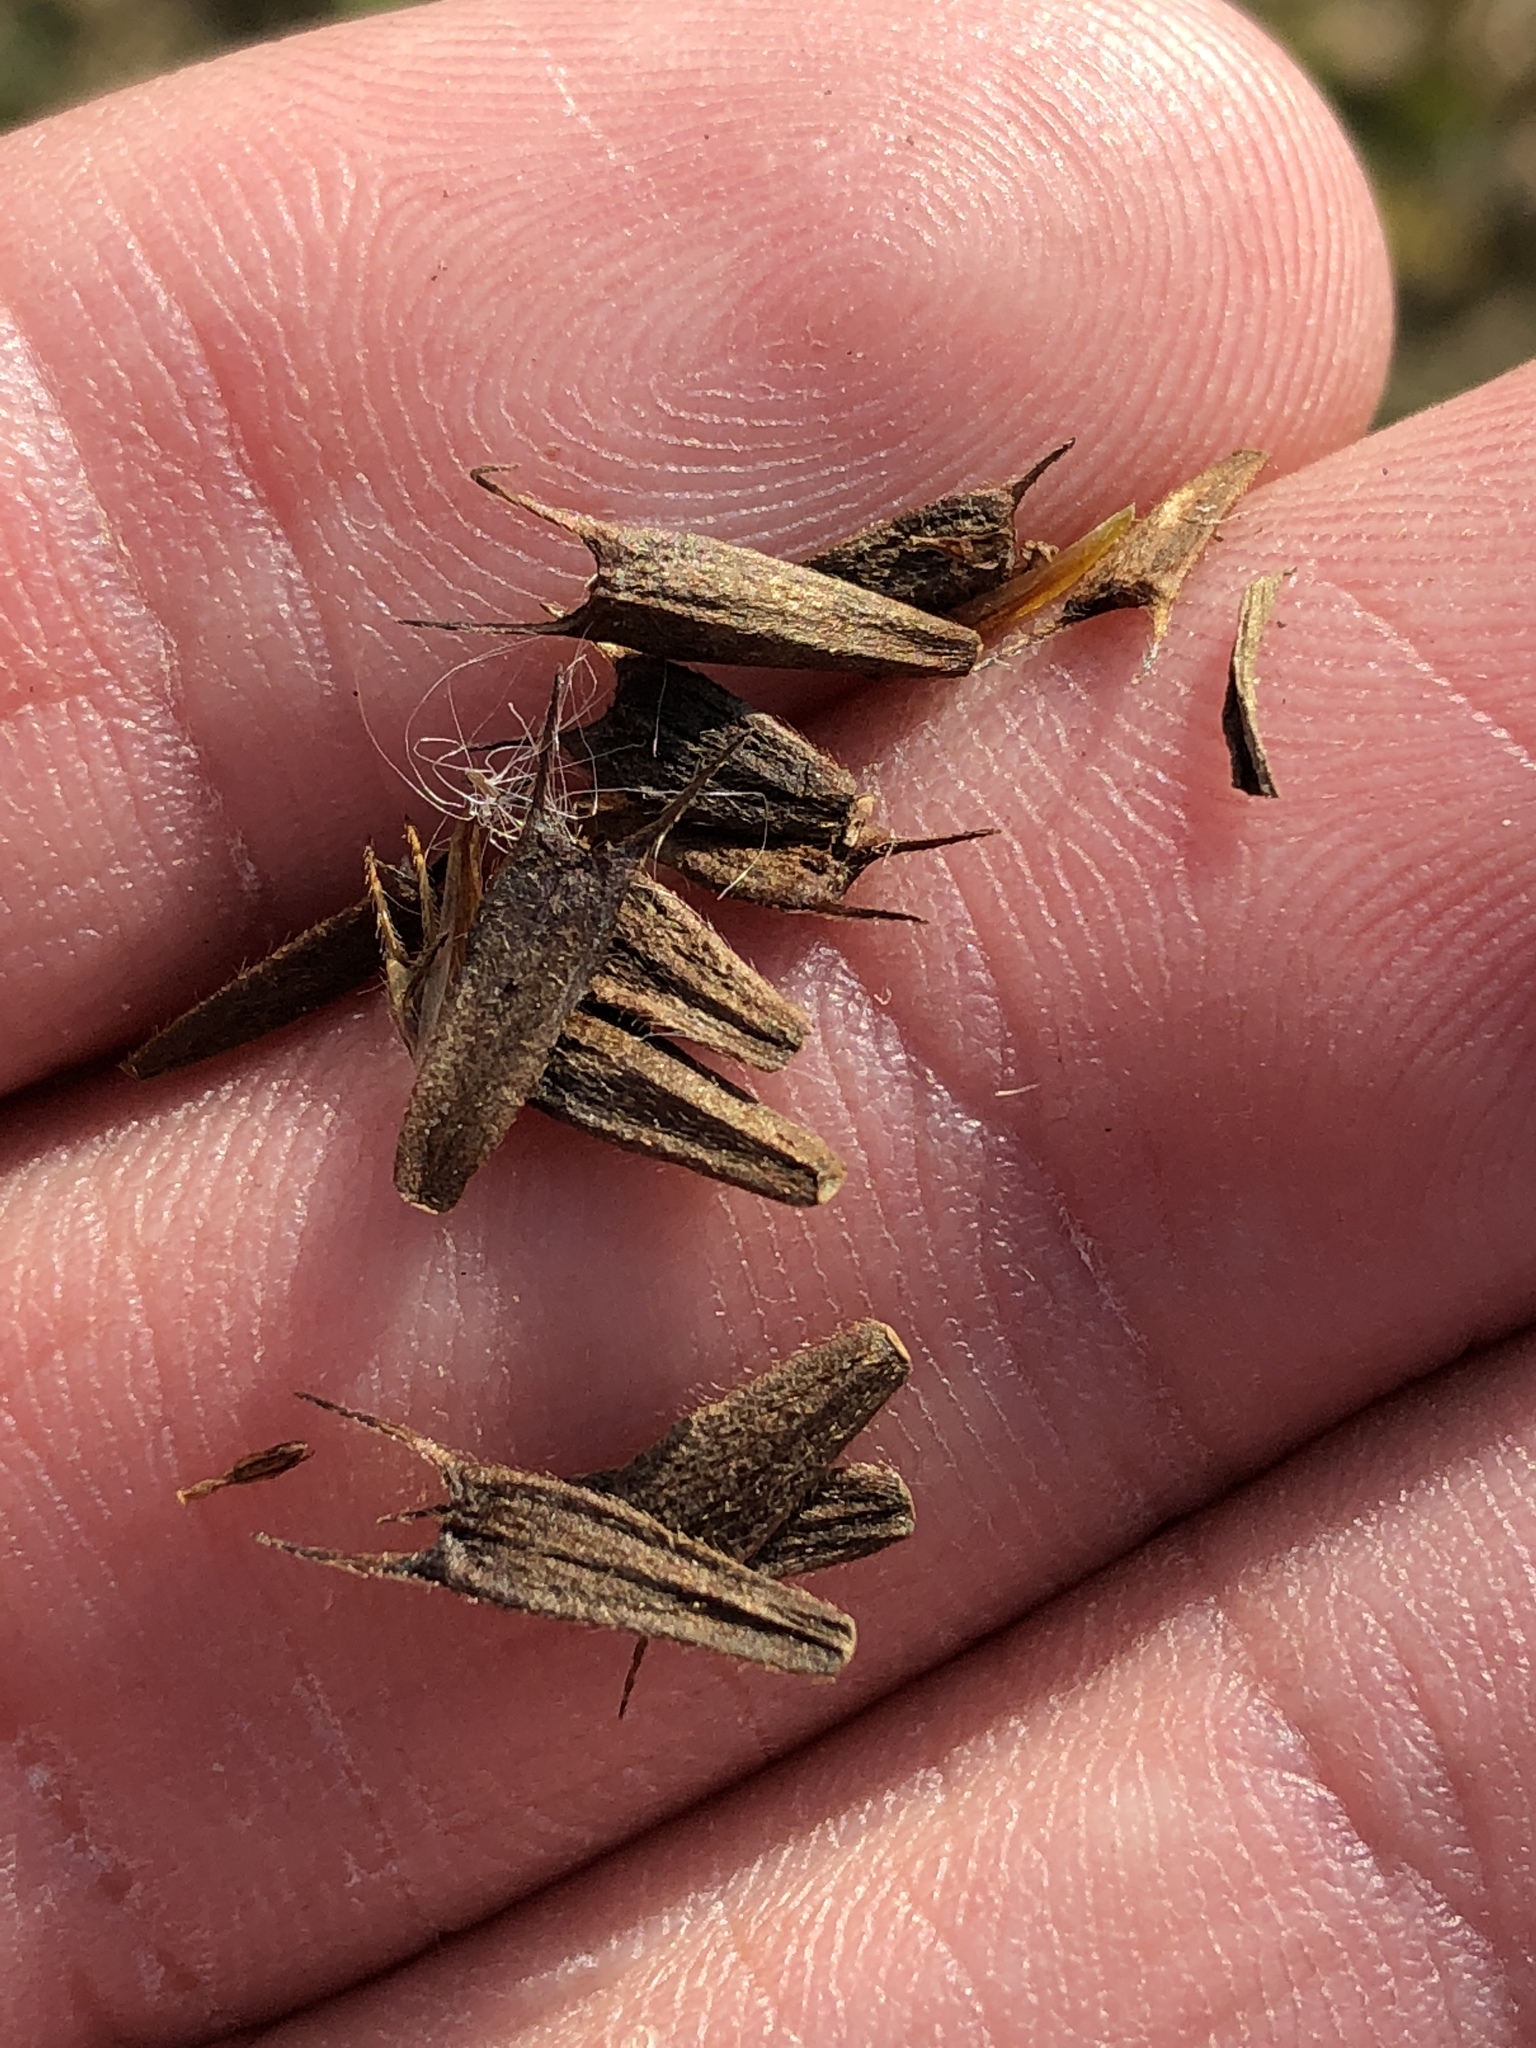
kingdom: Plantae
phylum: Tracheophyta
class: Magnoliopsida
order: Asterales
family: Asteraceae
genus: Bidens
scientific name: Bidens frondosa
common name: Beggarticks
